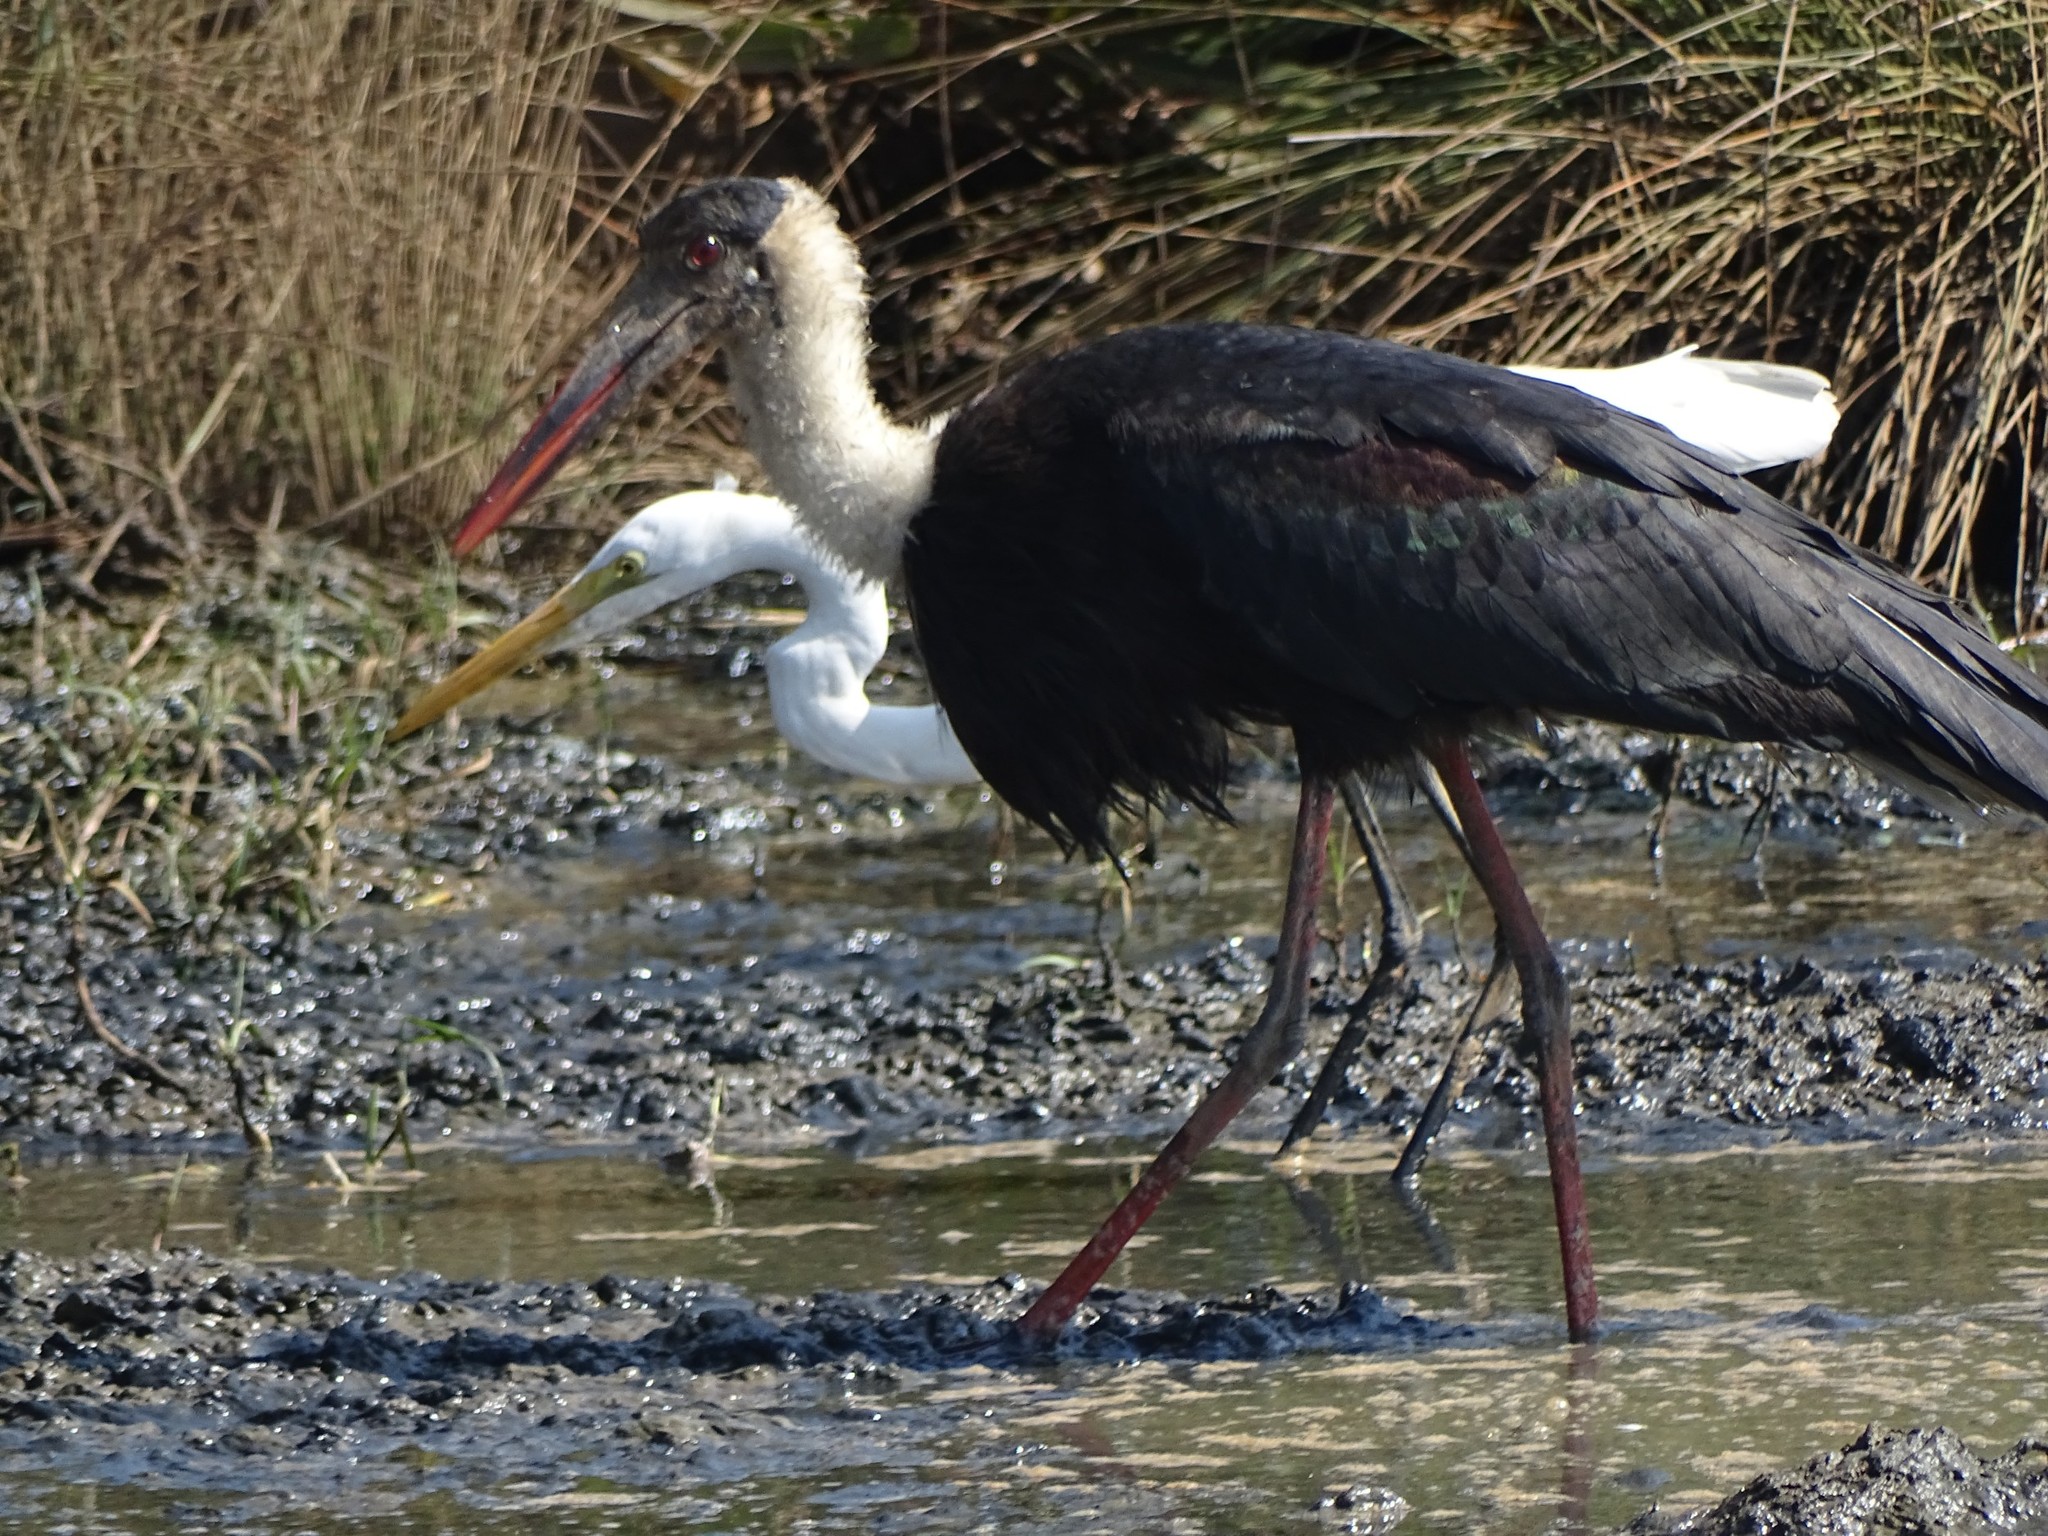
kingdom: Animalia
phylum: Chordata
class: Aves
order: Ciconiiformes
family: Ciconiidae
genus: Ciconia
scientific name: Ciconia episcopus
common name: Woolly-necked stork
